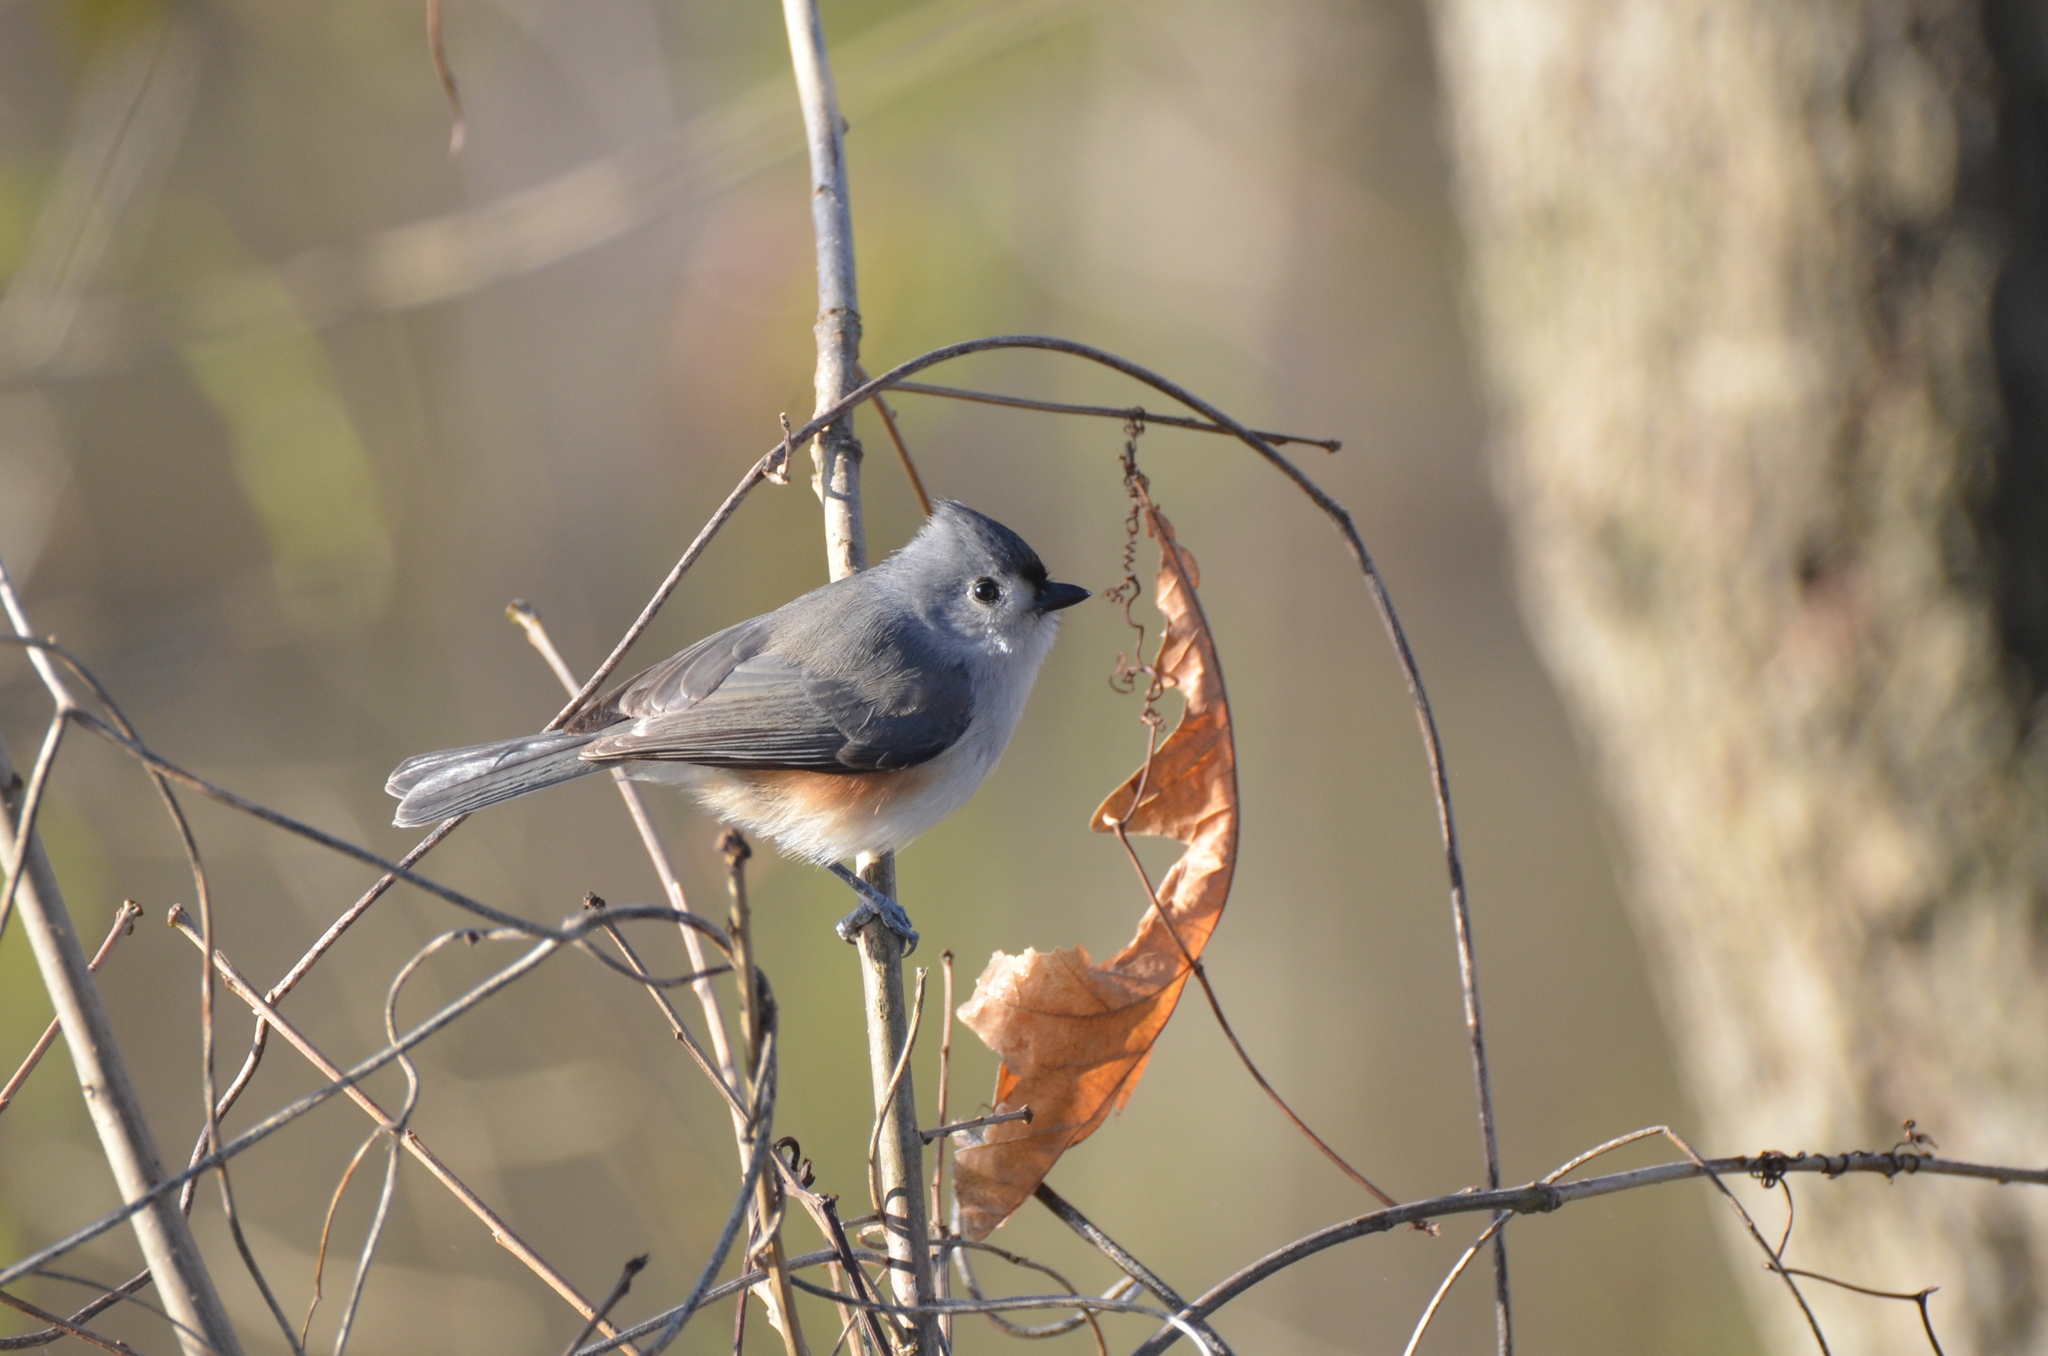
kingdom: Animalia
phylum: Chordata
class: Aves
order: Passeriformes
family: Paridae
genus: Baeolophus
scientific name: Baeolophus bicolor
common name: Tufted titmouse
